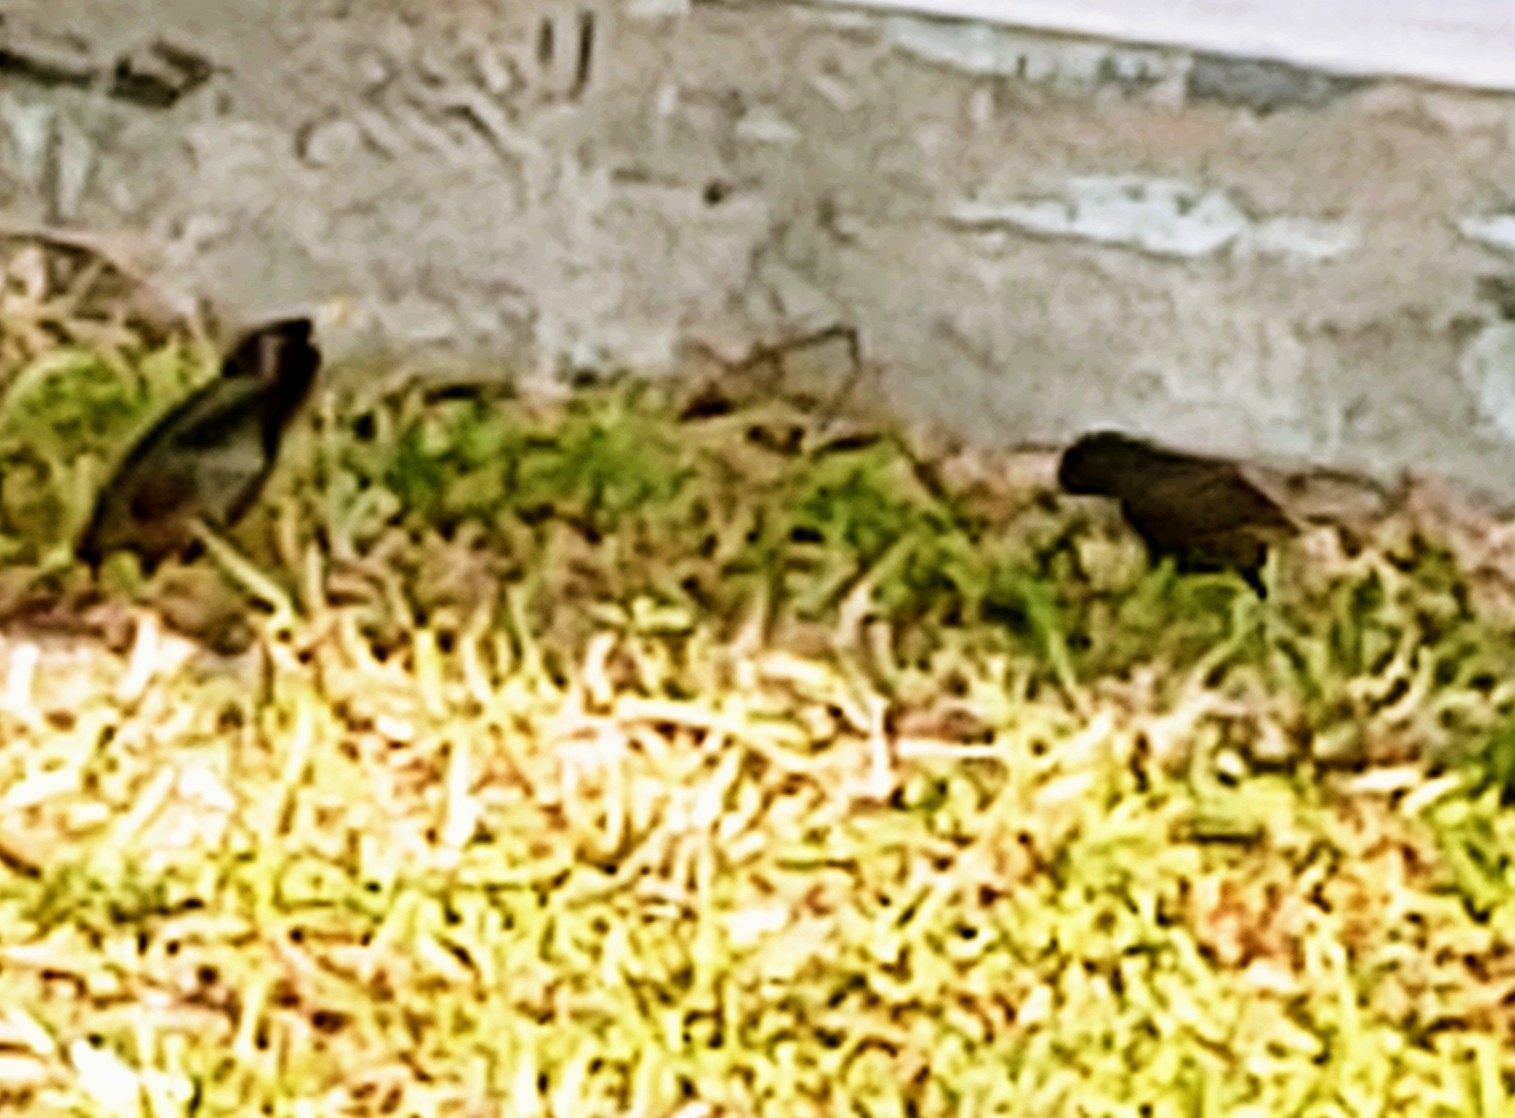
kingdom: Animalia
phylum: Chordata
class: Aves
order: Passeriformes
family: Sturnidae
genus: Sturnus
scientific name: Sturnus vulgaris
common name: Common starling
